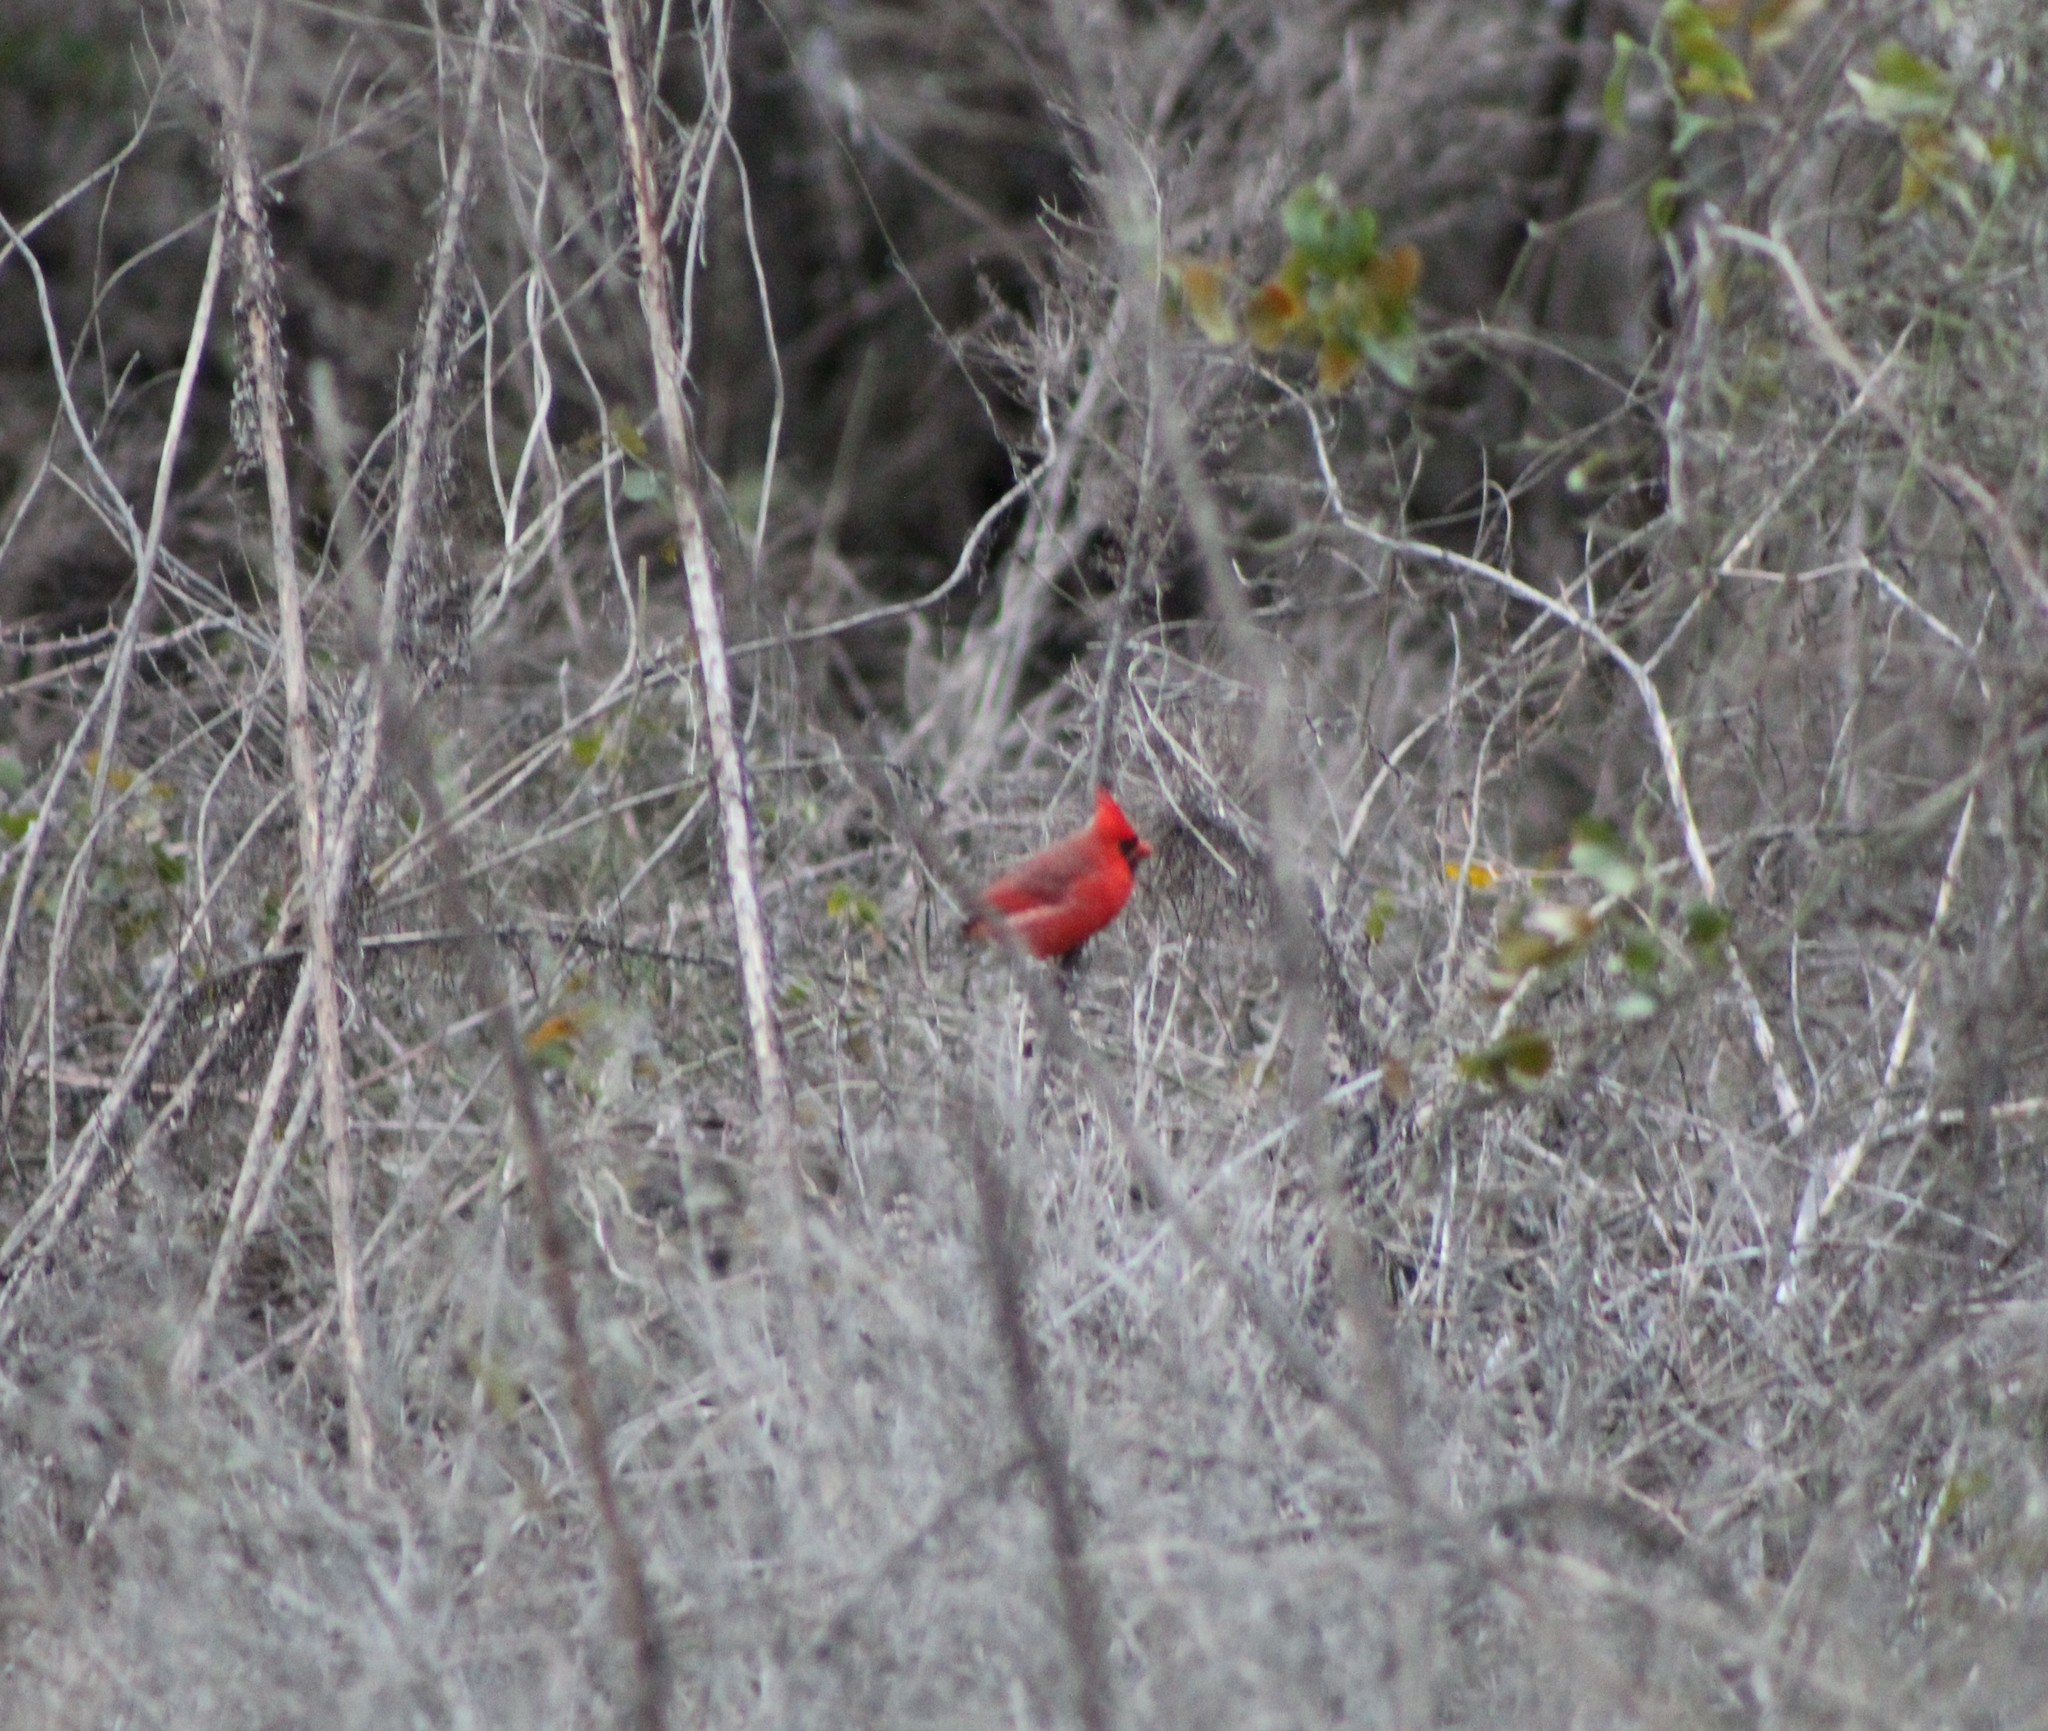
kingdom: Animalia
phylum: Chordata
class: Aves
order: Passeriformes
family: Cardinalidae
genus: Cardinalis
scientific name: Cardinalis cardinalis
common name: Northern cardinal
